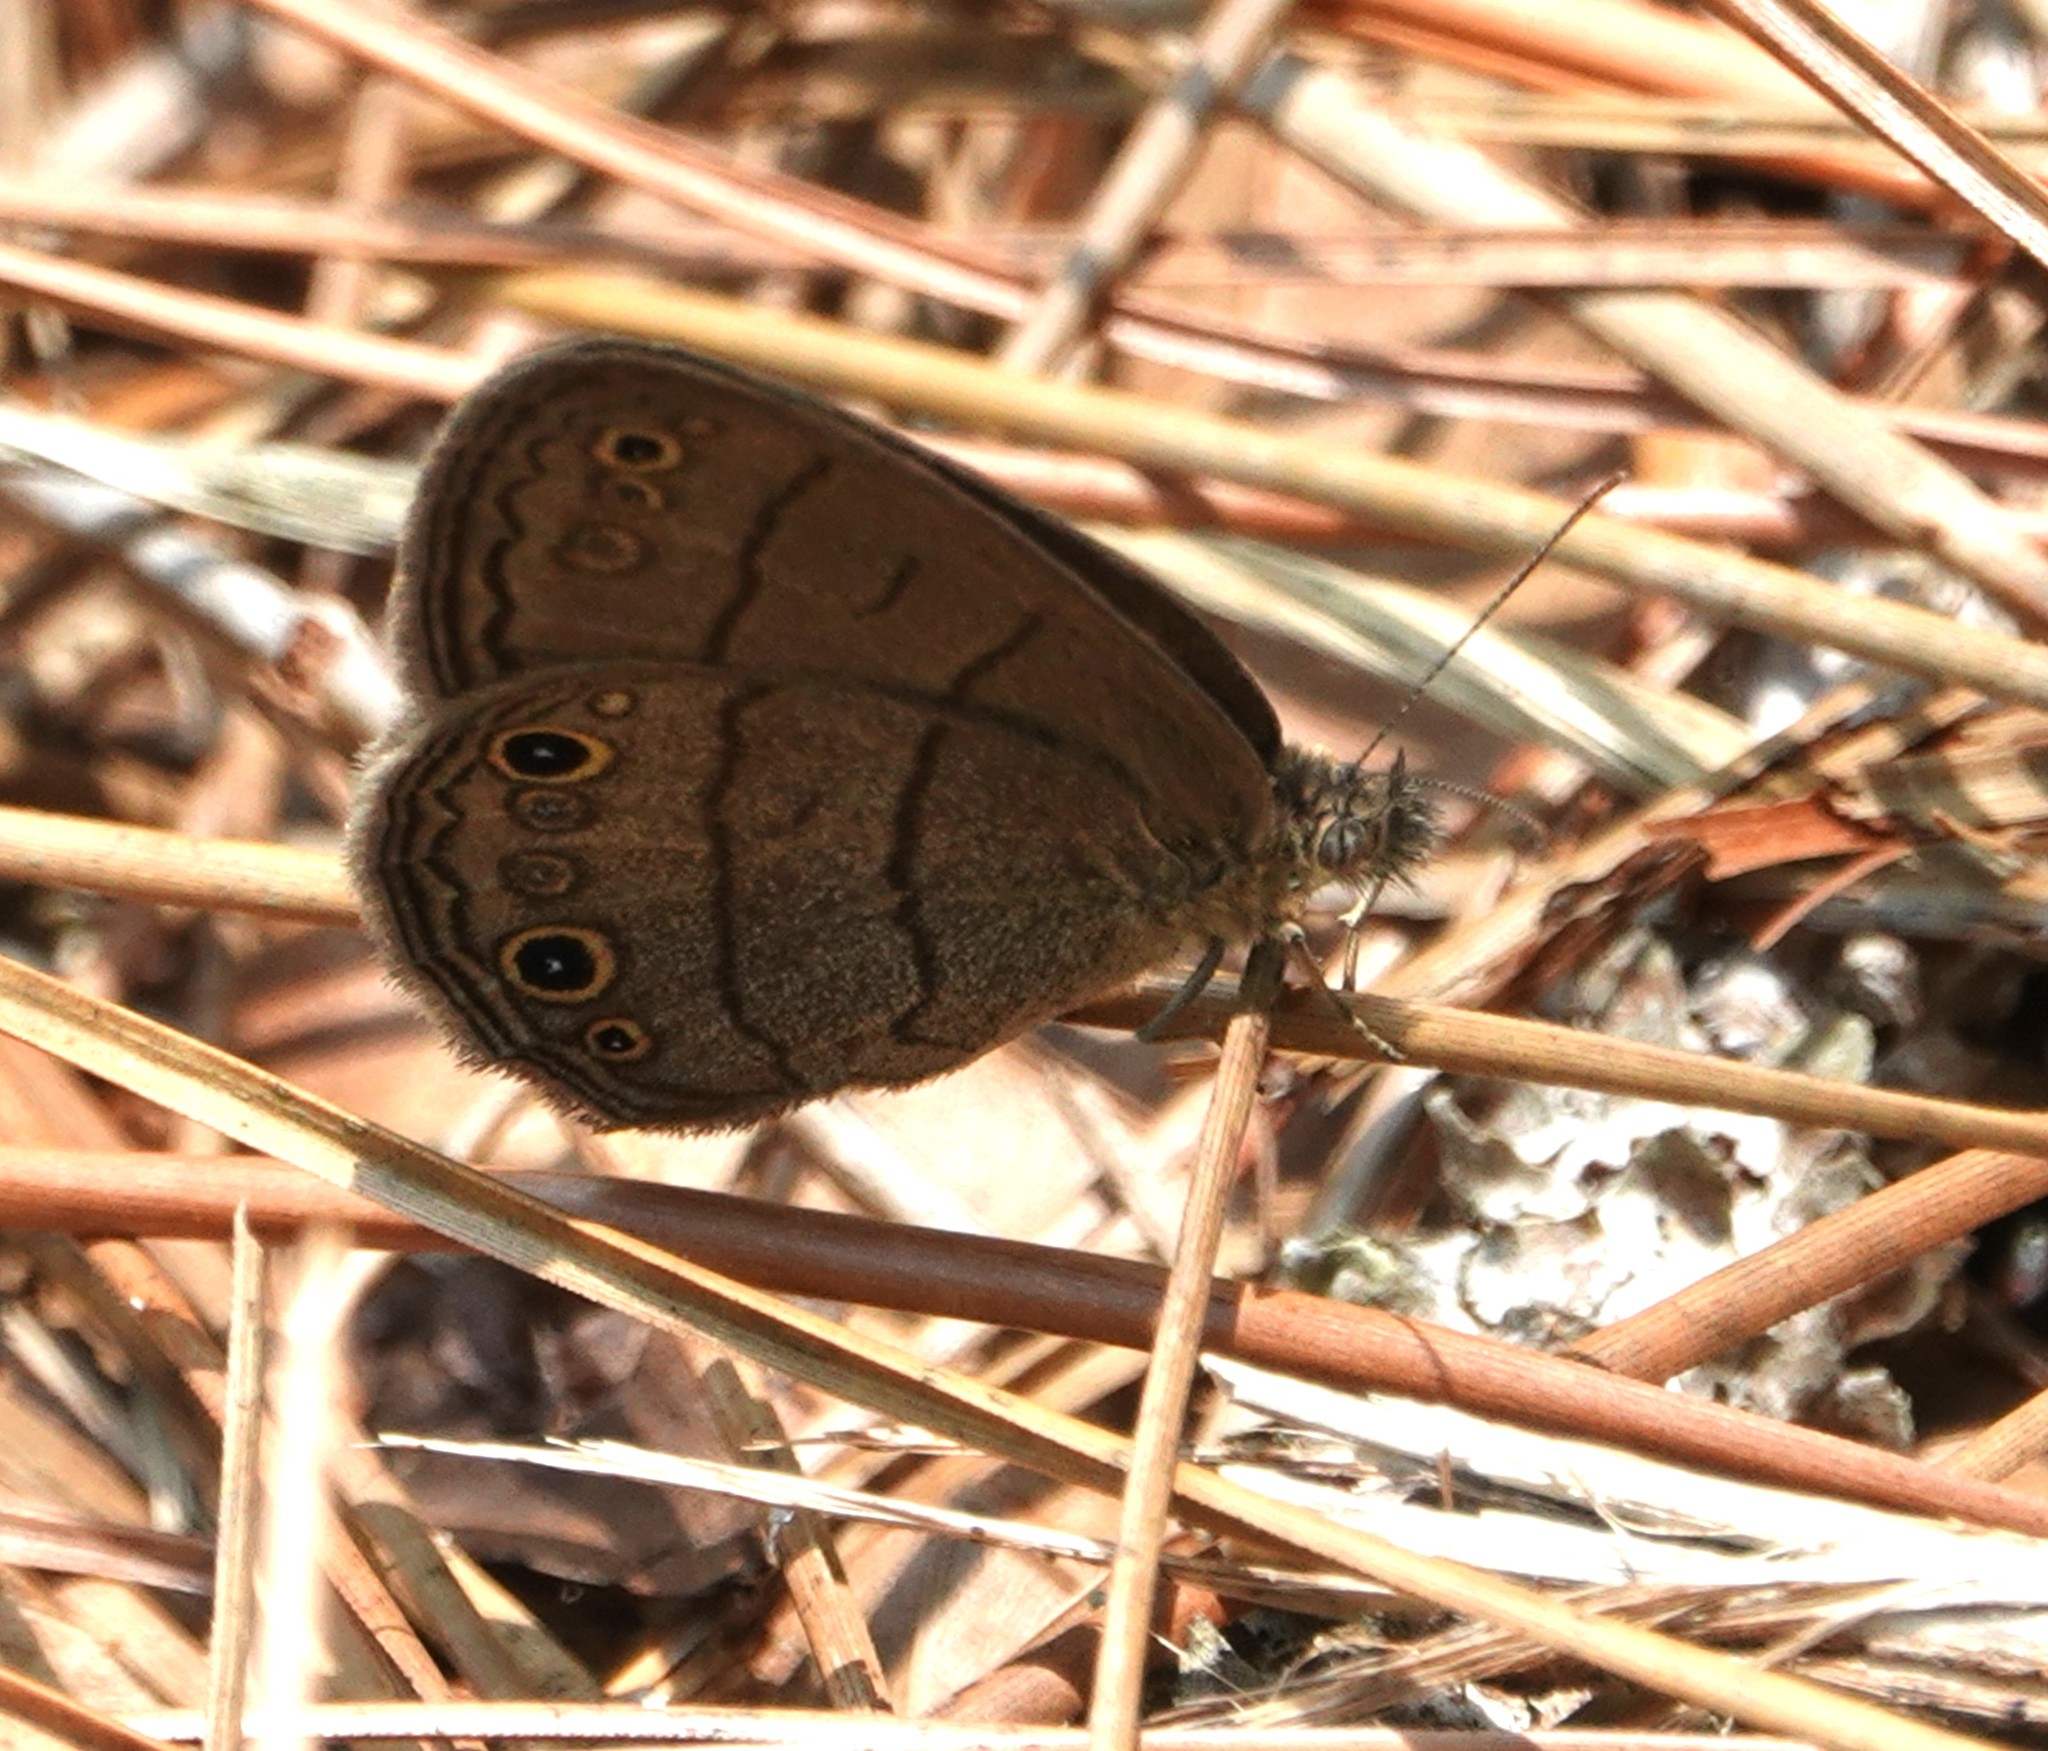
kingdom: Animalia
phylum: Arthropoda
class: Insecta
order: Lepidoptera
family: Nymphalidae
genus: Hermeuptychia
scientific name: Hermeuptychia hermes
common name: Hermes satyr
